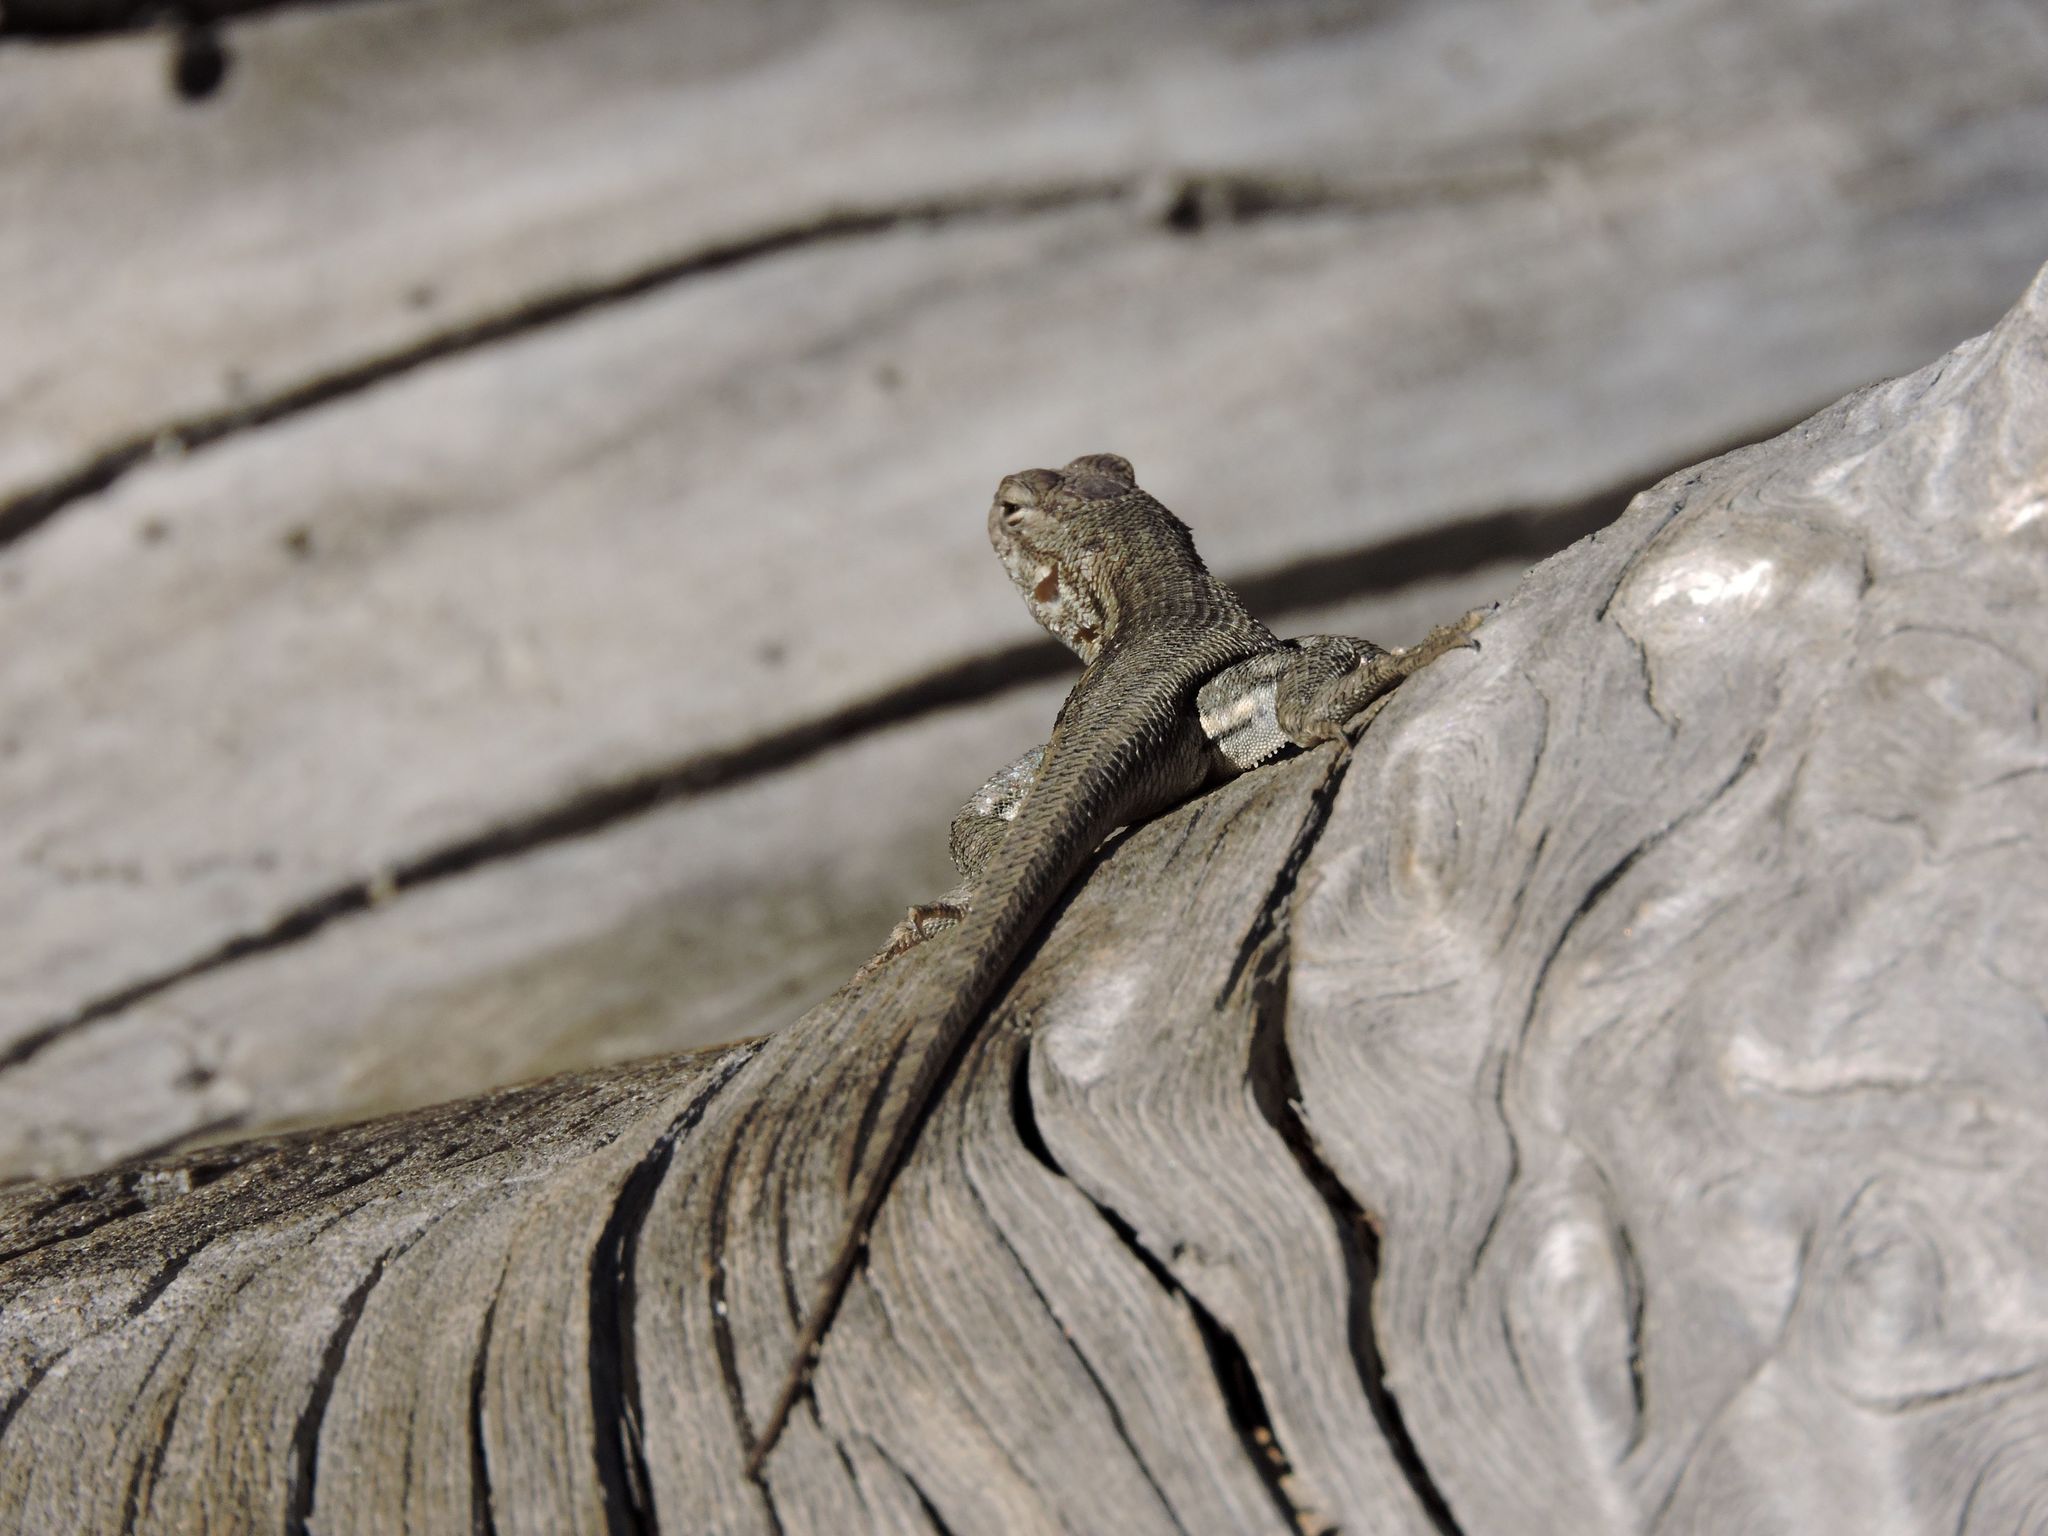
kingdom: Animalia
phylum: Chordata
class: Squamata
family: Phrynosomatidae
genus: Sceloporus
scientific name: Sceloporus graciosus
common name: Sagebrush lizard
